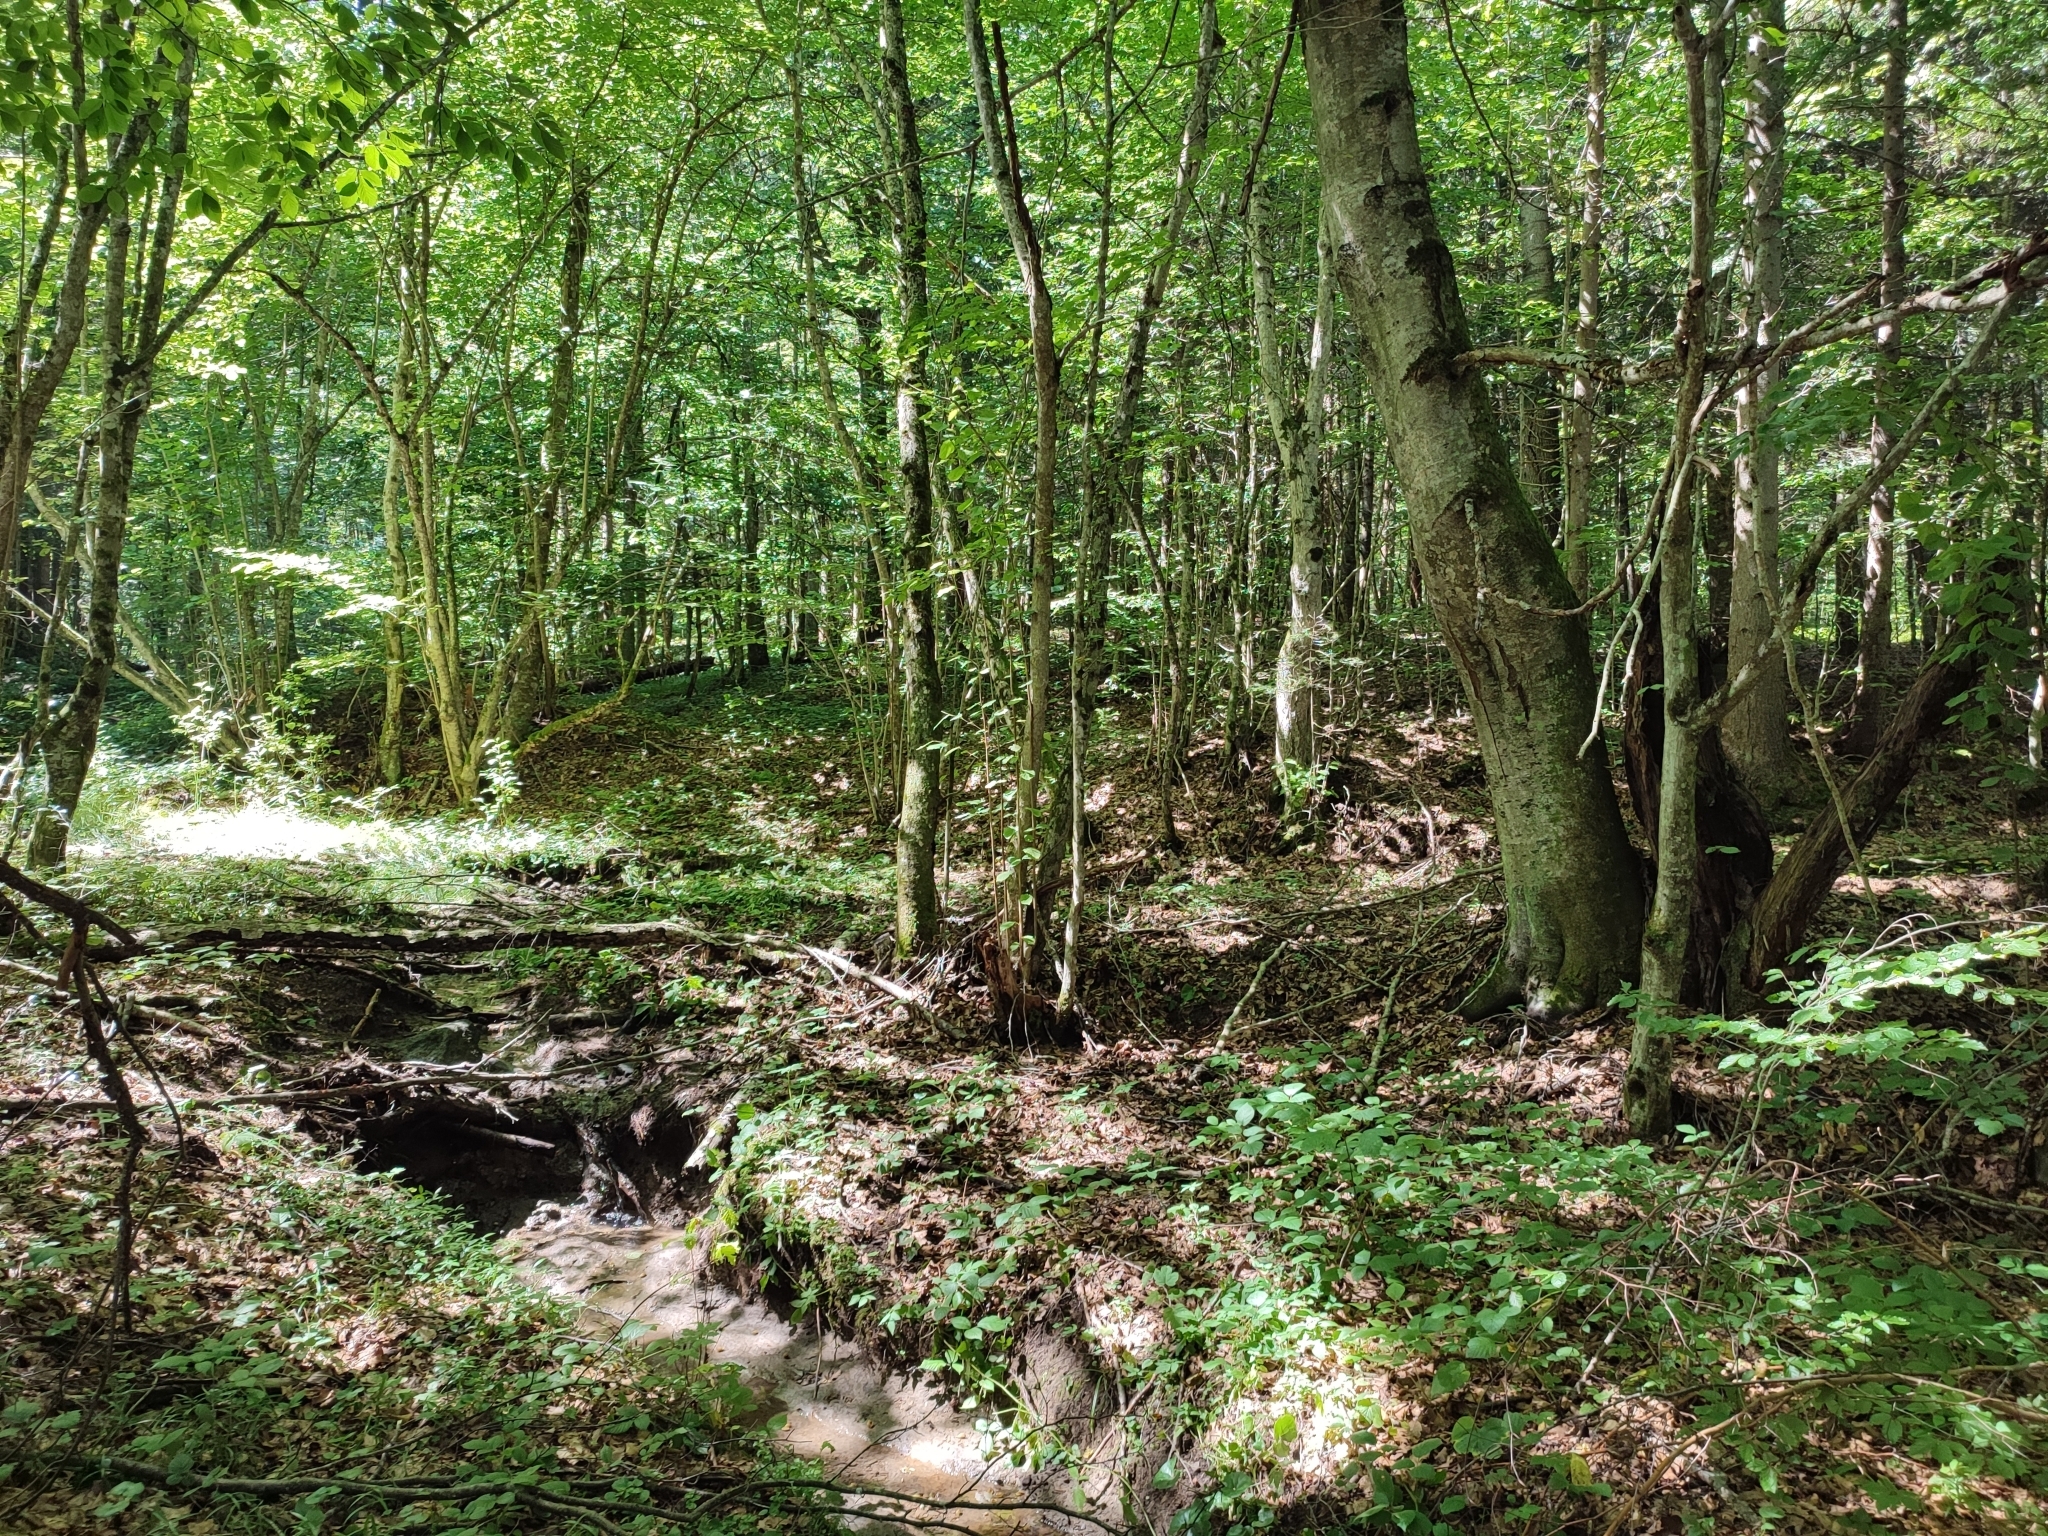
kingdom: Plantae
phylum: Tracheophyta
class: Magnoliopsida
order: Fagales
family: Fagaceae
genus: Fagus
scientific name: Fagus sylvatica
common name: Beech
